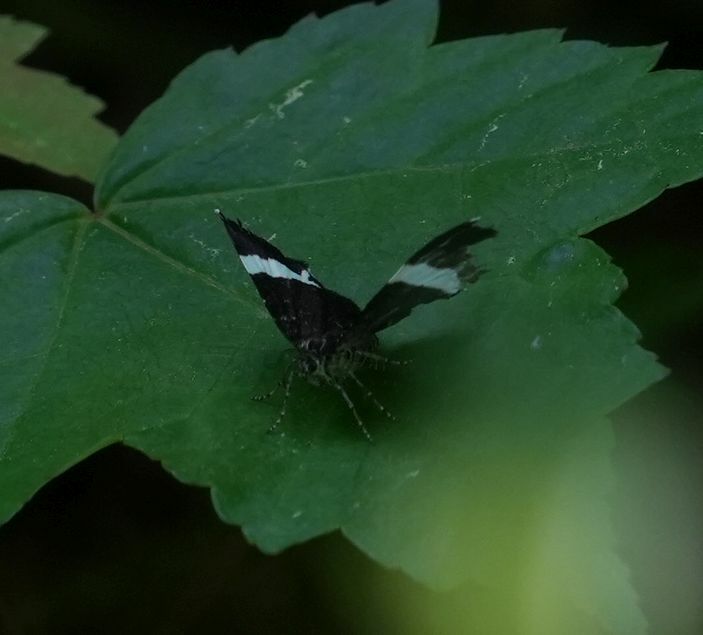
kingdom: Animalia
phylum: Arthropoda
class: Insecta
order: Lepidoptera
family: Geometridae
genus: Trichodezia
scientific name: Trichodezia albovittata
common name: White striped black
